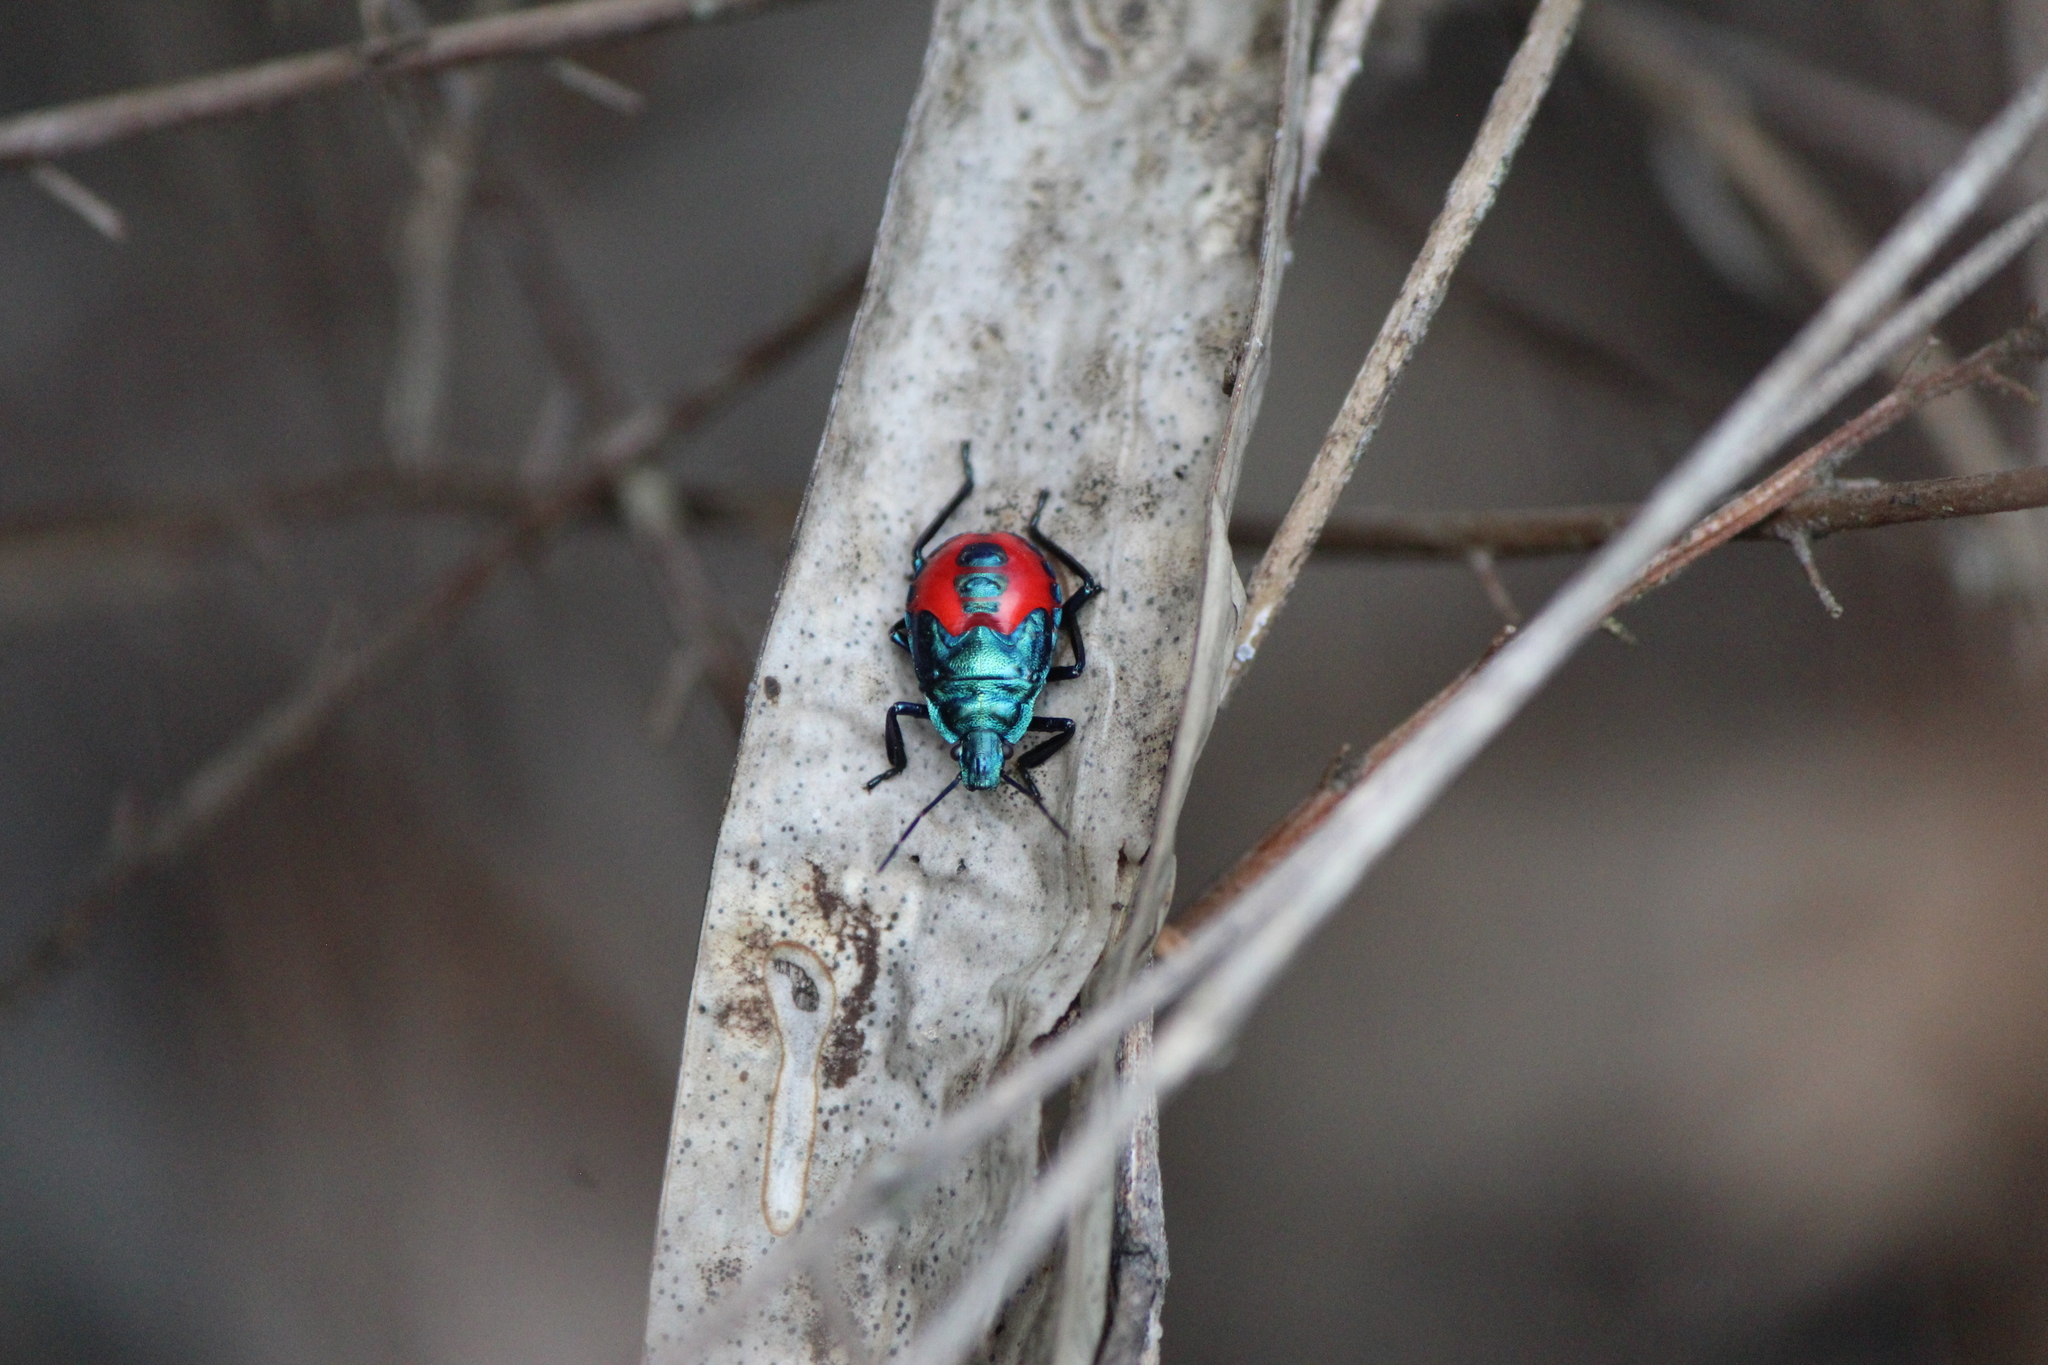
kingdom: Animalia
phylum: Arthropoda
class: Insecta
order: Hemiptera
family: Pentatomidae
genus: Euthyrhynchus
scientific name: Euthyrhynchus floridanus
